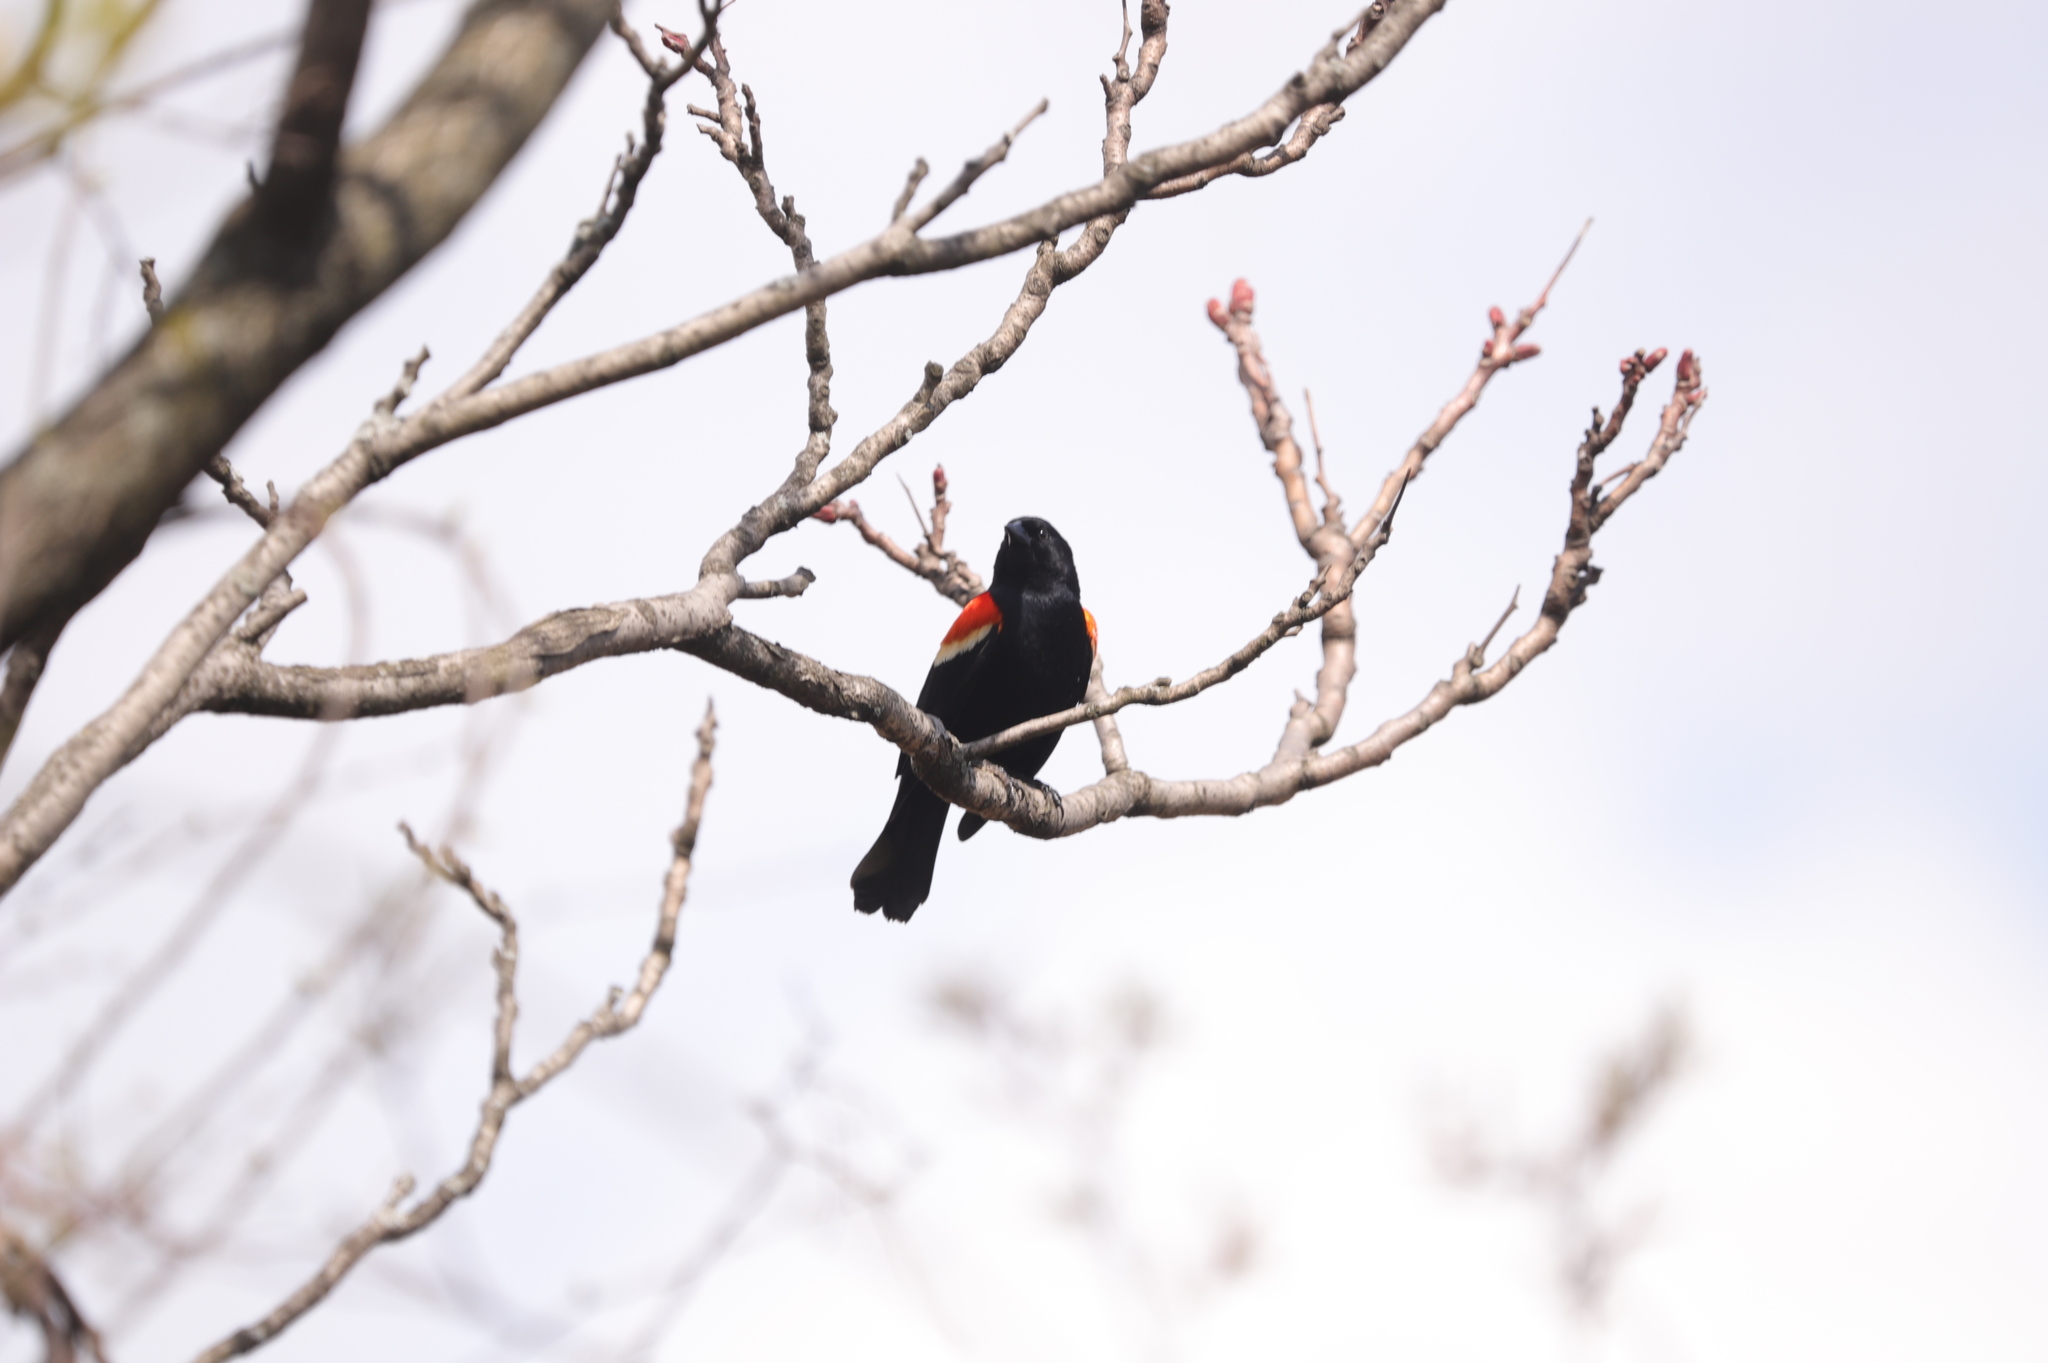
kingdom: Animalia
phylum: Chordata
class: Aves
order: Passeriformes
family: Icteridae
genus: Agelaius
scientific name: Agelaius phoeniceus
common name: Red-winged blackbird
